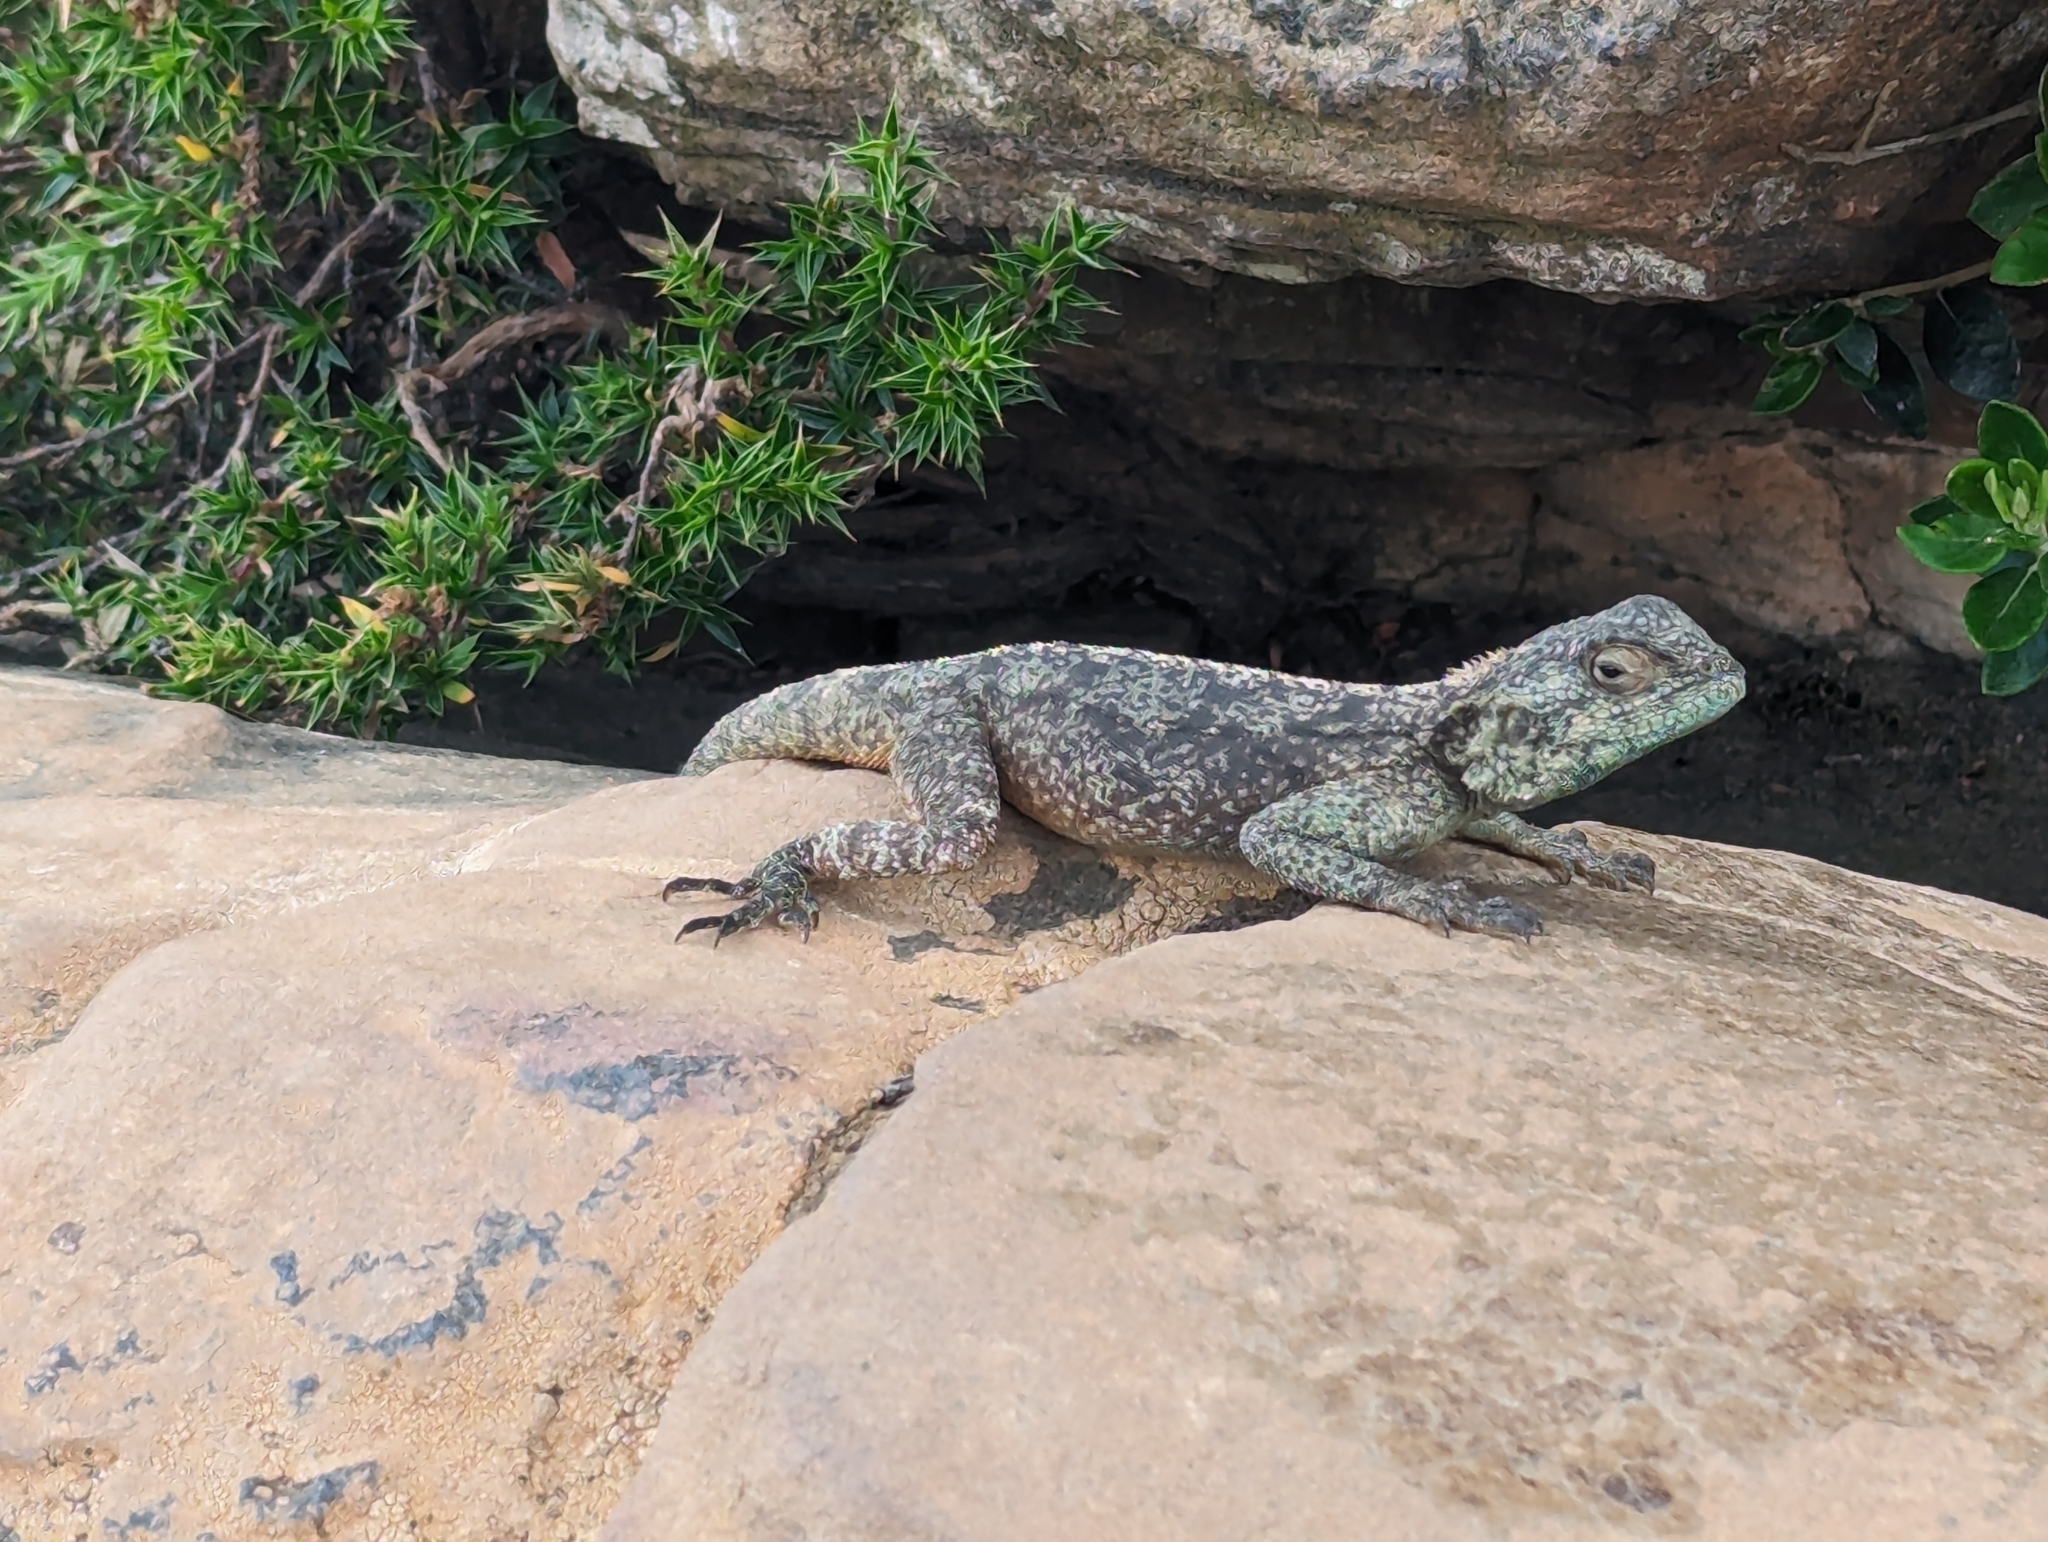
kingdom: Animalia
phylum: Chordata
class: Squamata
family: Agamidae
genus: Agama
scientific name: Agama atra
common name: Southern african rock agama
